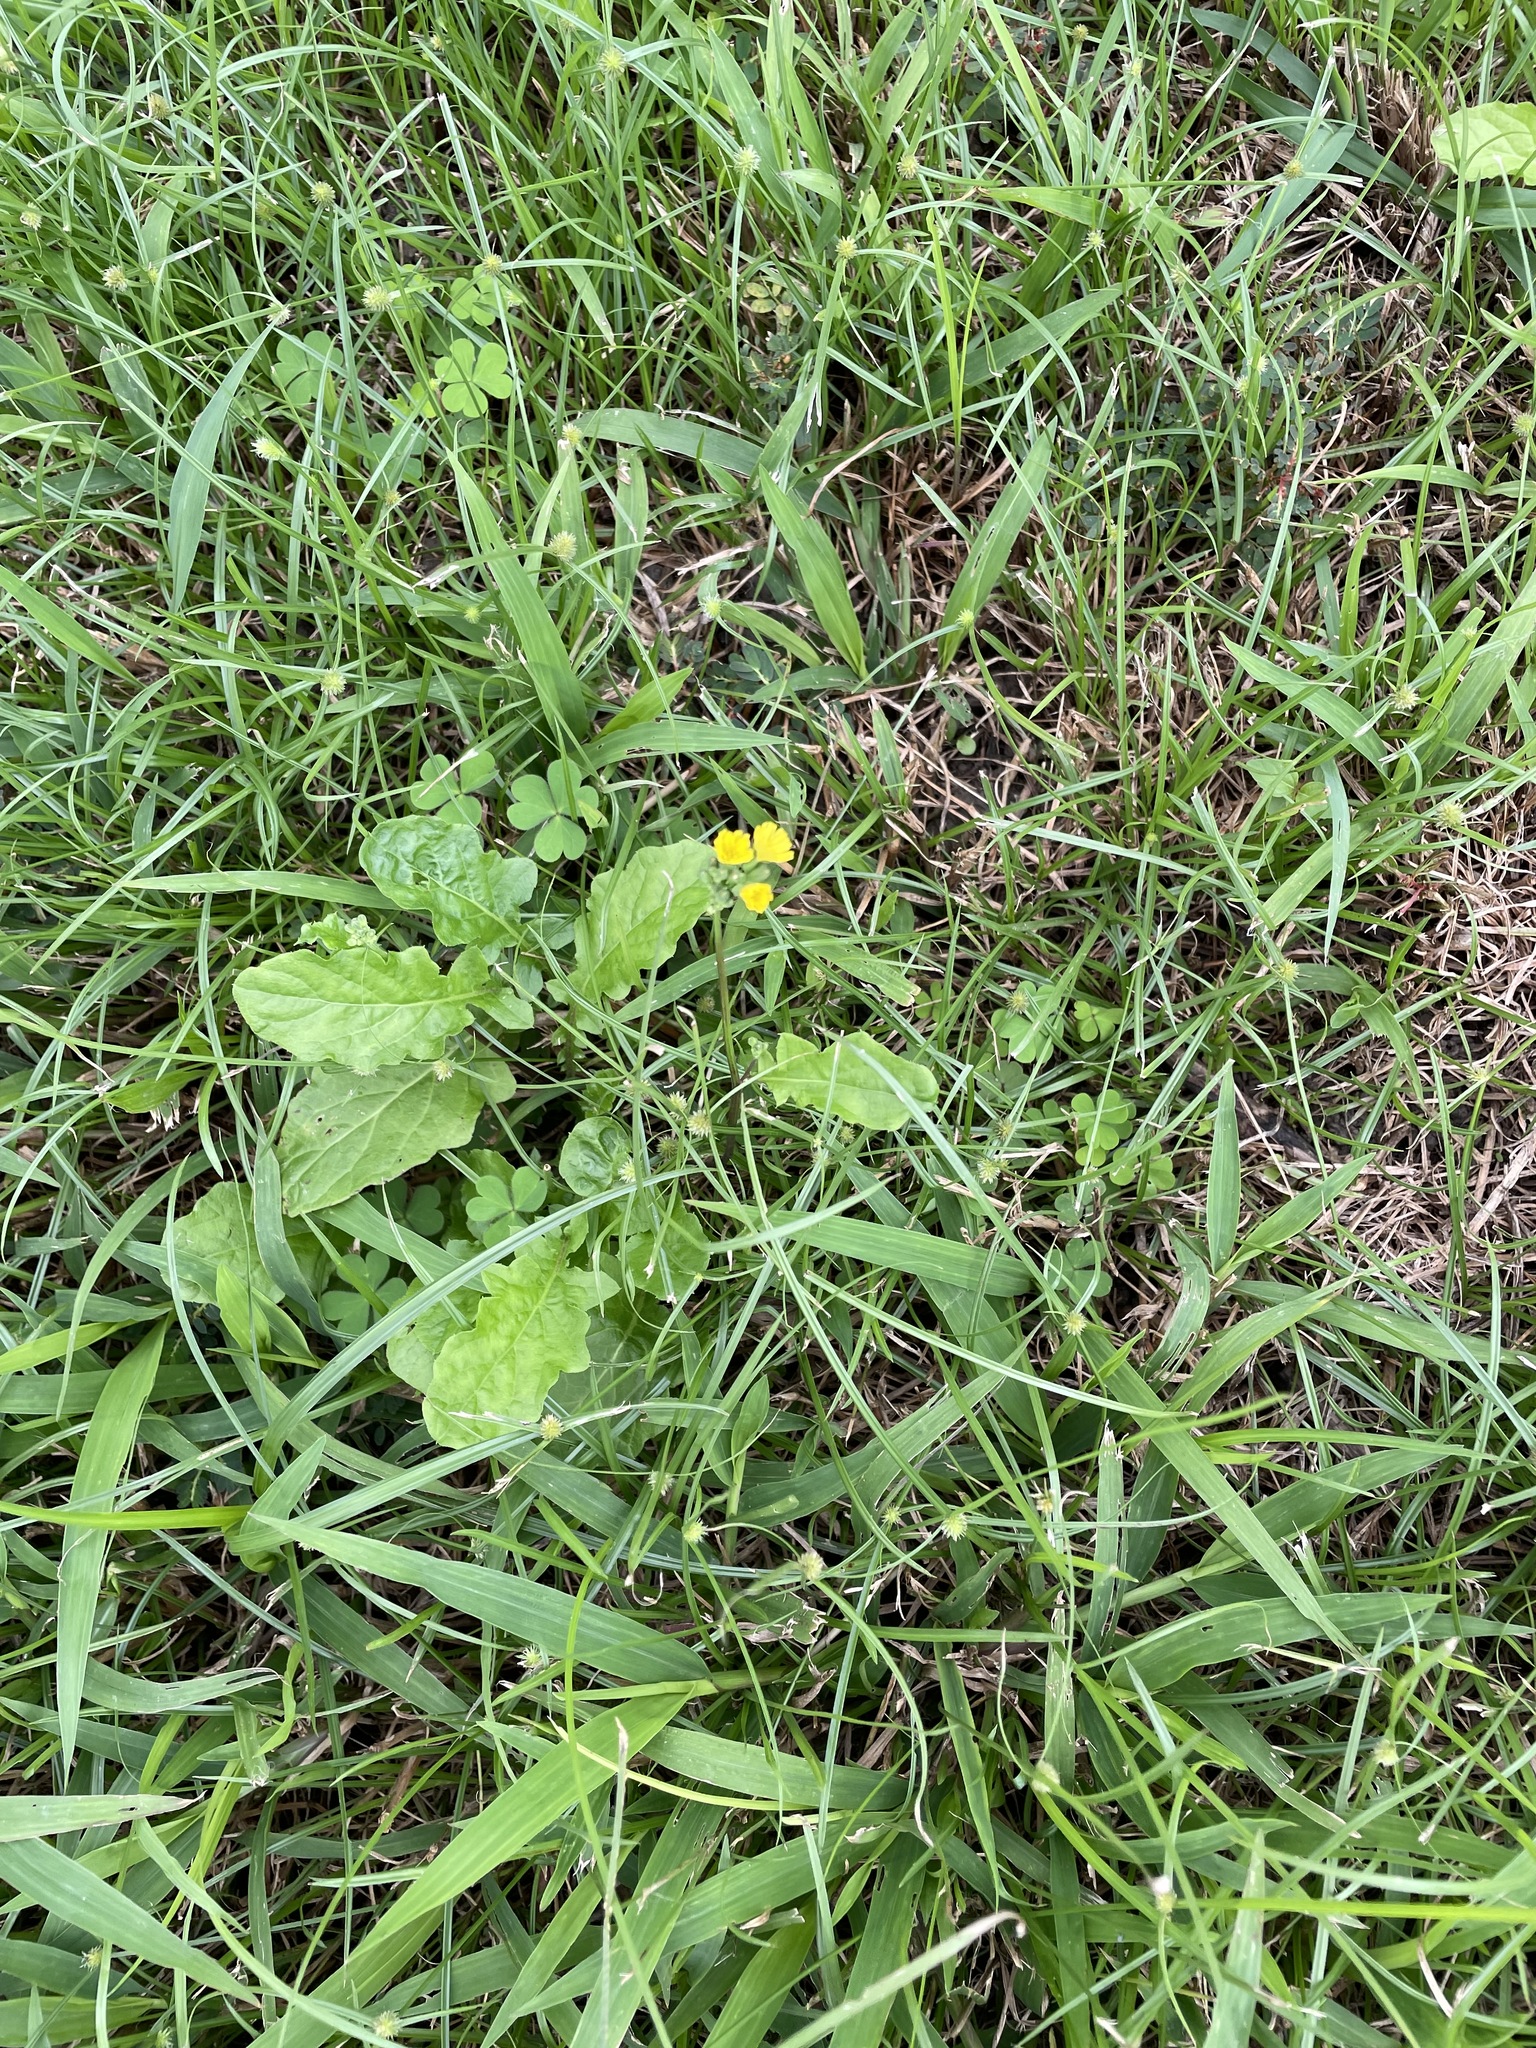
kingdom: Plantae
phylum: Tracheophyta
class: Magnoliopsida
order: Asterales
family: Asteraceae
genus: Youngia
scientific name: Youngia japonica
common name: Oriental false hawksbeard
